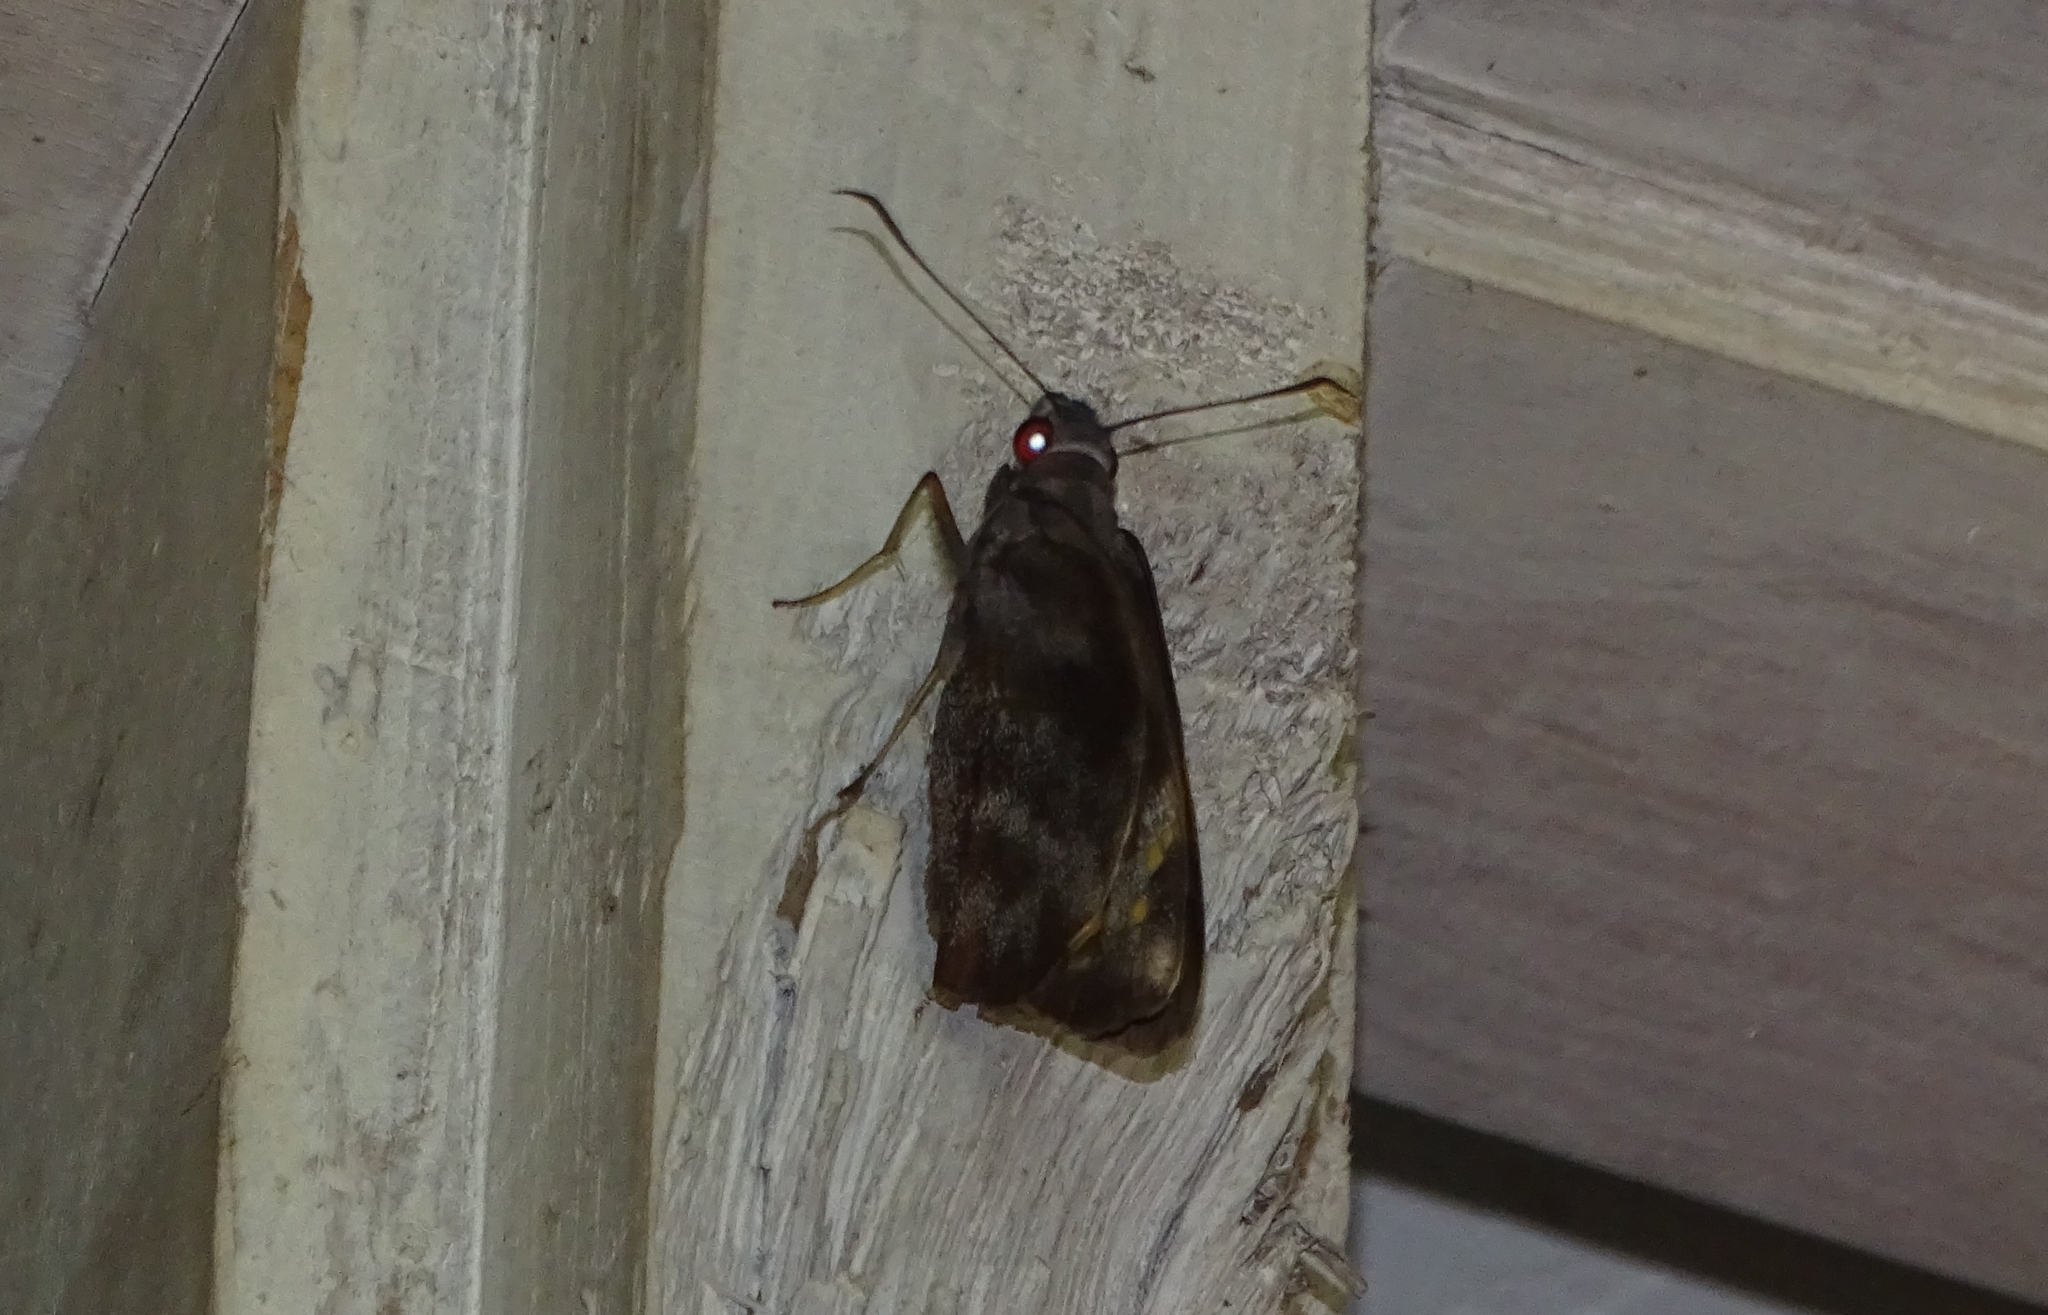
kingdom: Animalia
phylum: Arthropoda
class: Insecta
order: Lepidoptera
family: Hesperiidae
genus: Gangara
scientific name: Gangara thyrsis
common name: Giant redeye
